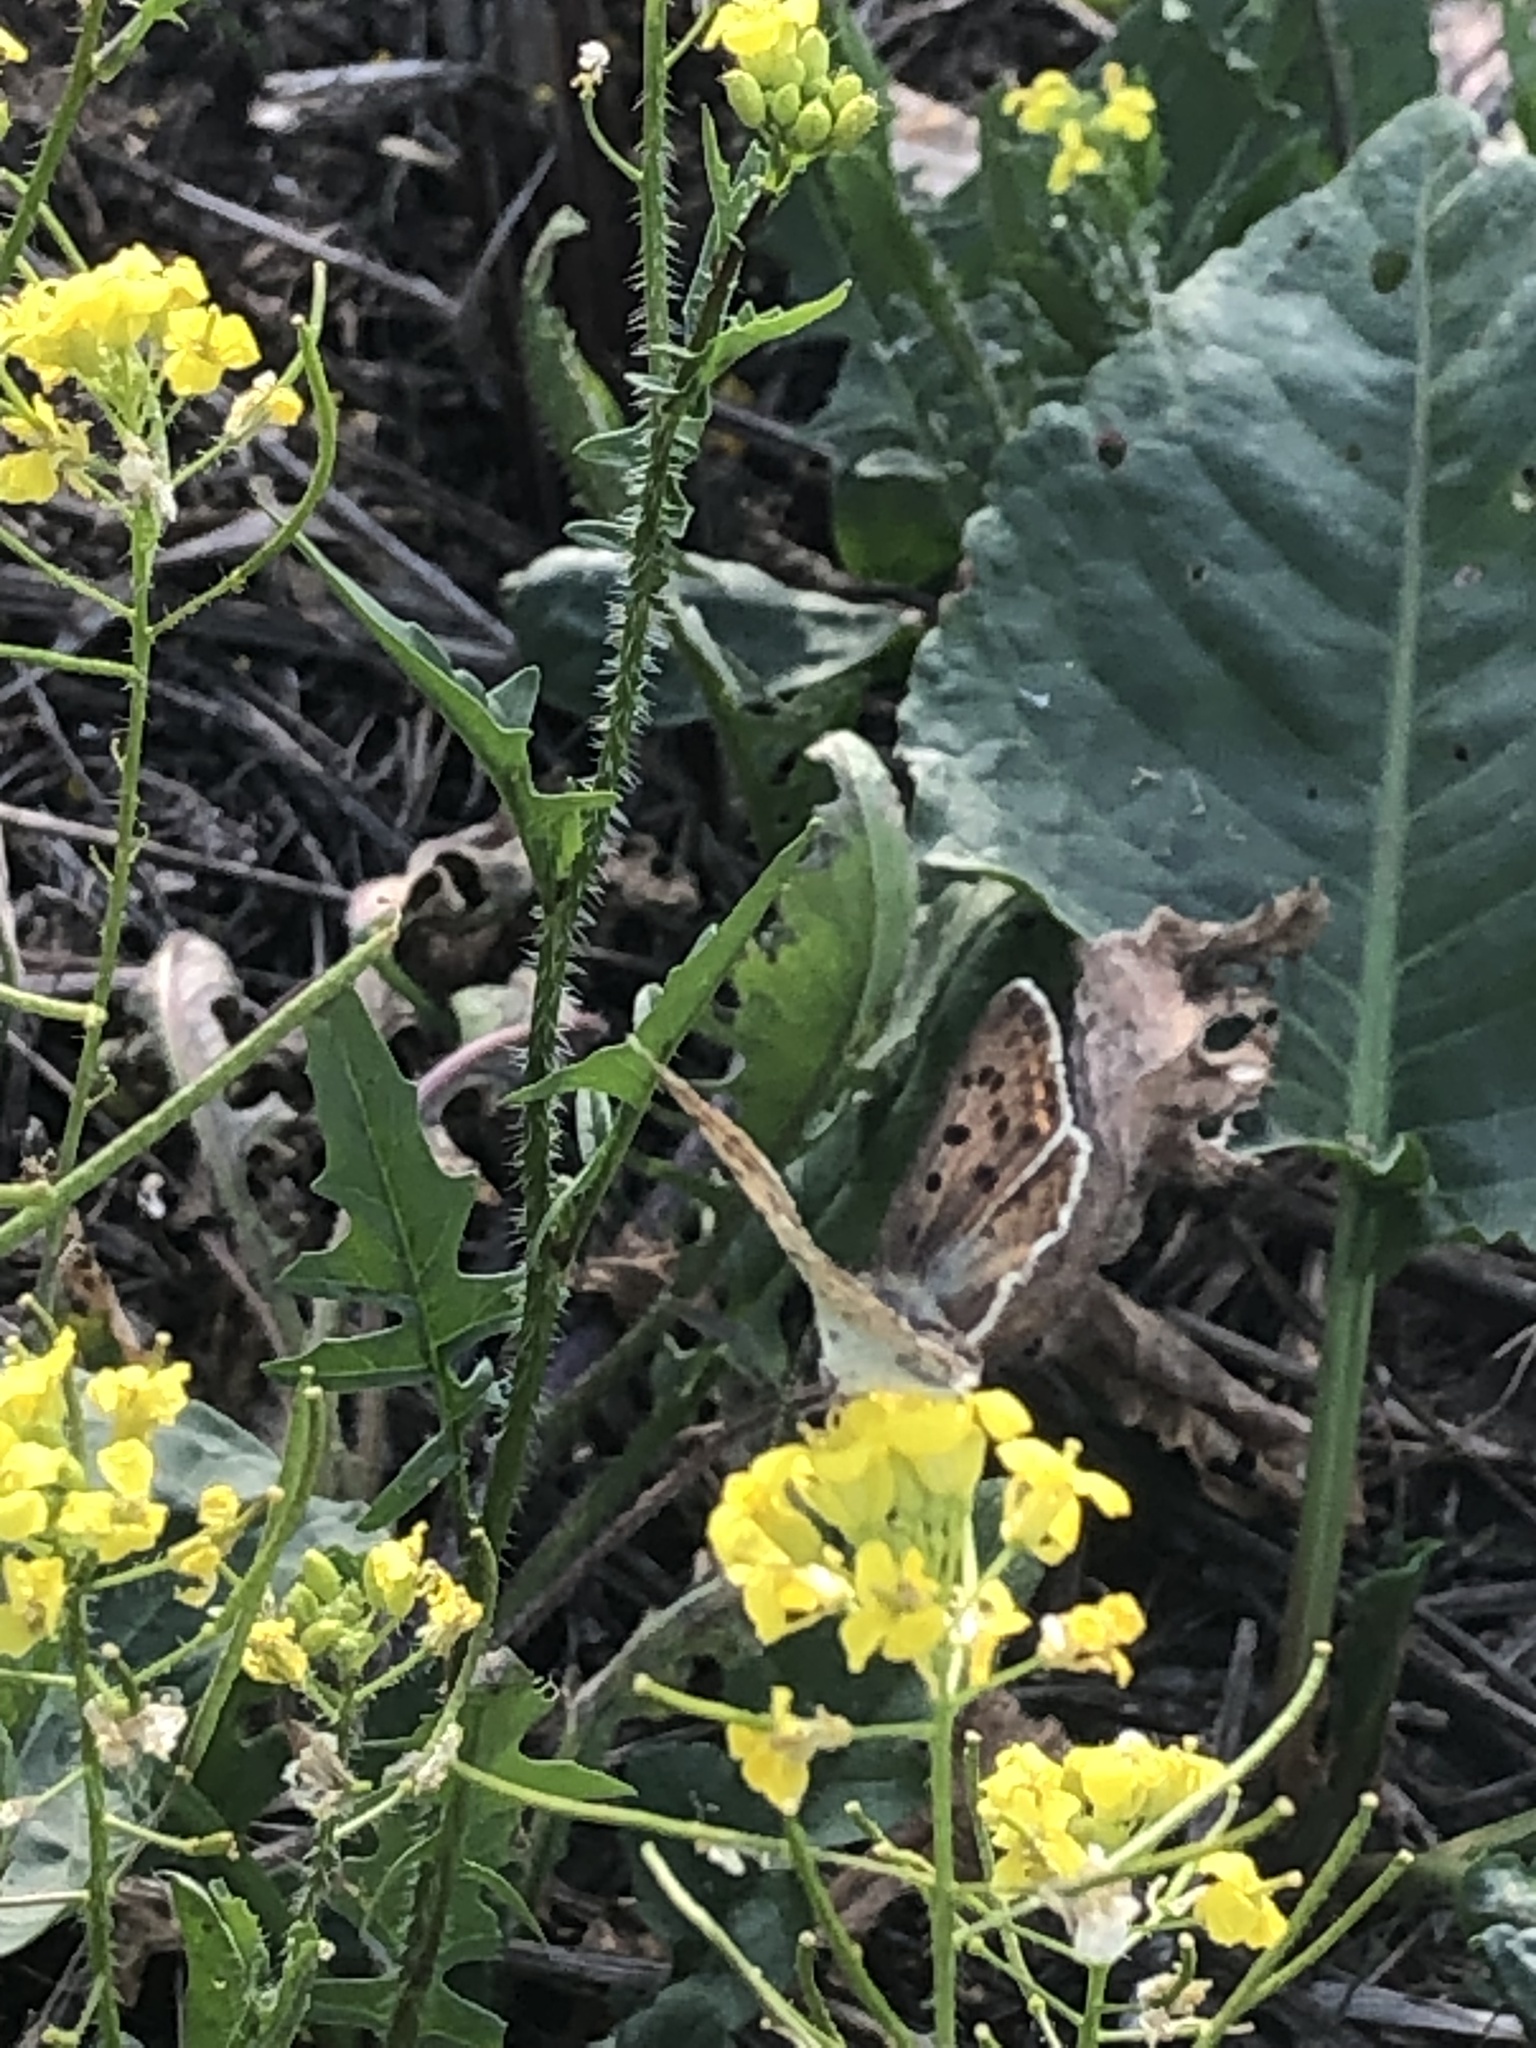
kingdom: Animalia
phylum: Arthropoda
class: Insecta
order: Lepidoptera
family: Lycaenidae
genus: Loweia
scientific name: Loweia tityrus
